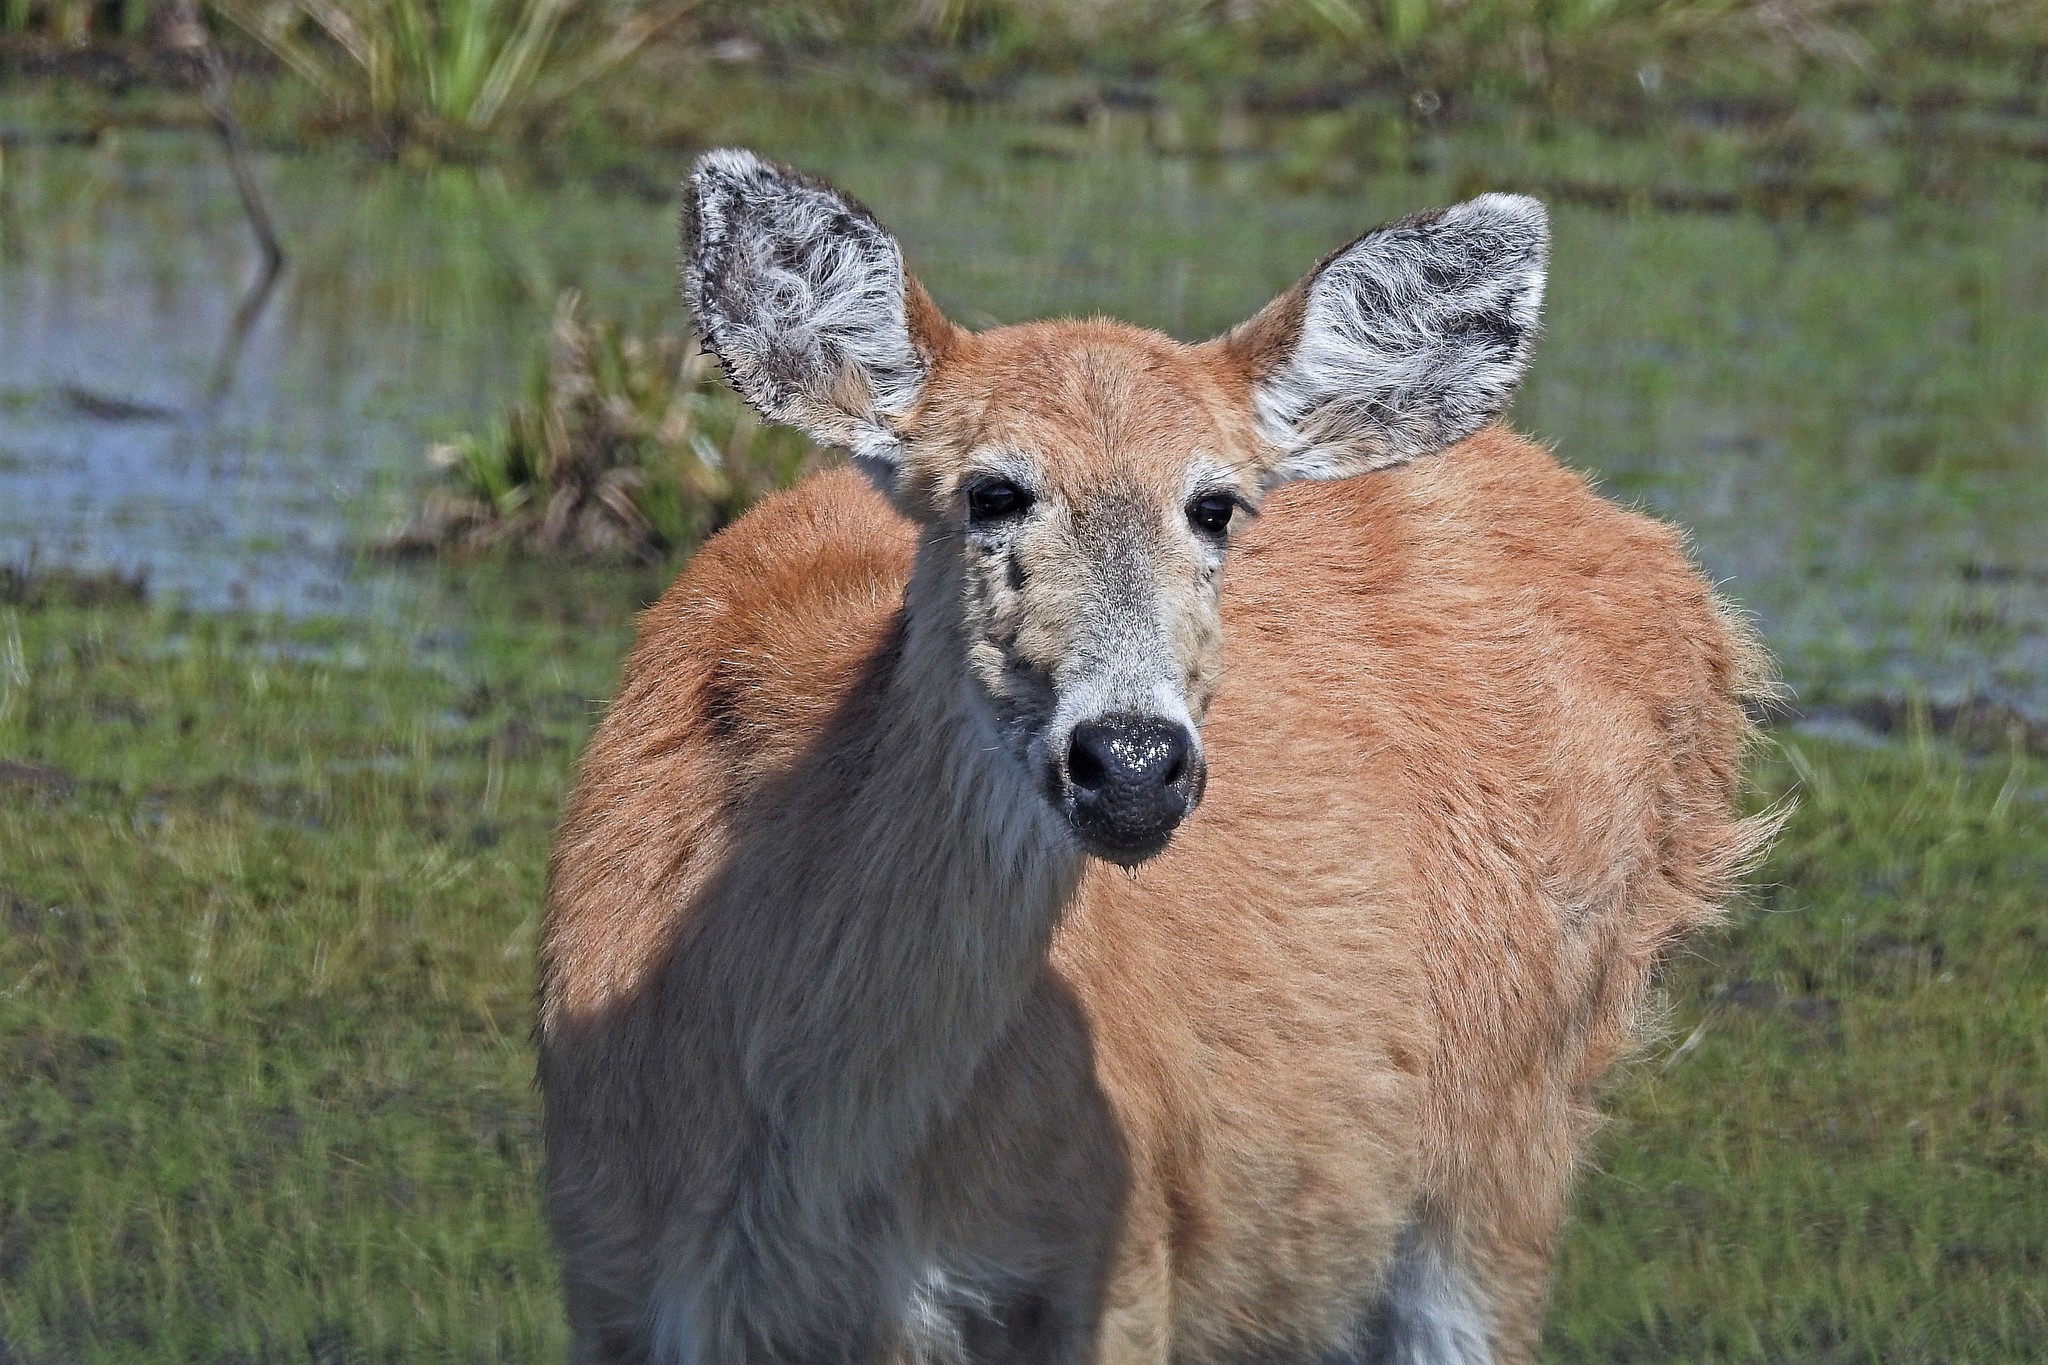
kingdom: Animalia
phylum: Chordata
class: Mammalia
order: Artiodactyla
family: Cervidae
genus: Blastocerus
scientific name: Blastocerus dichotomus
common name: Marsh deer
